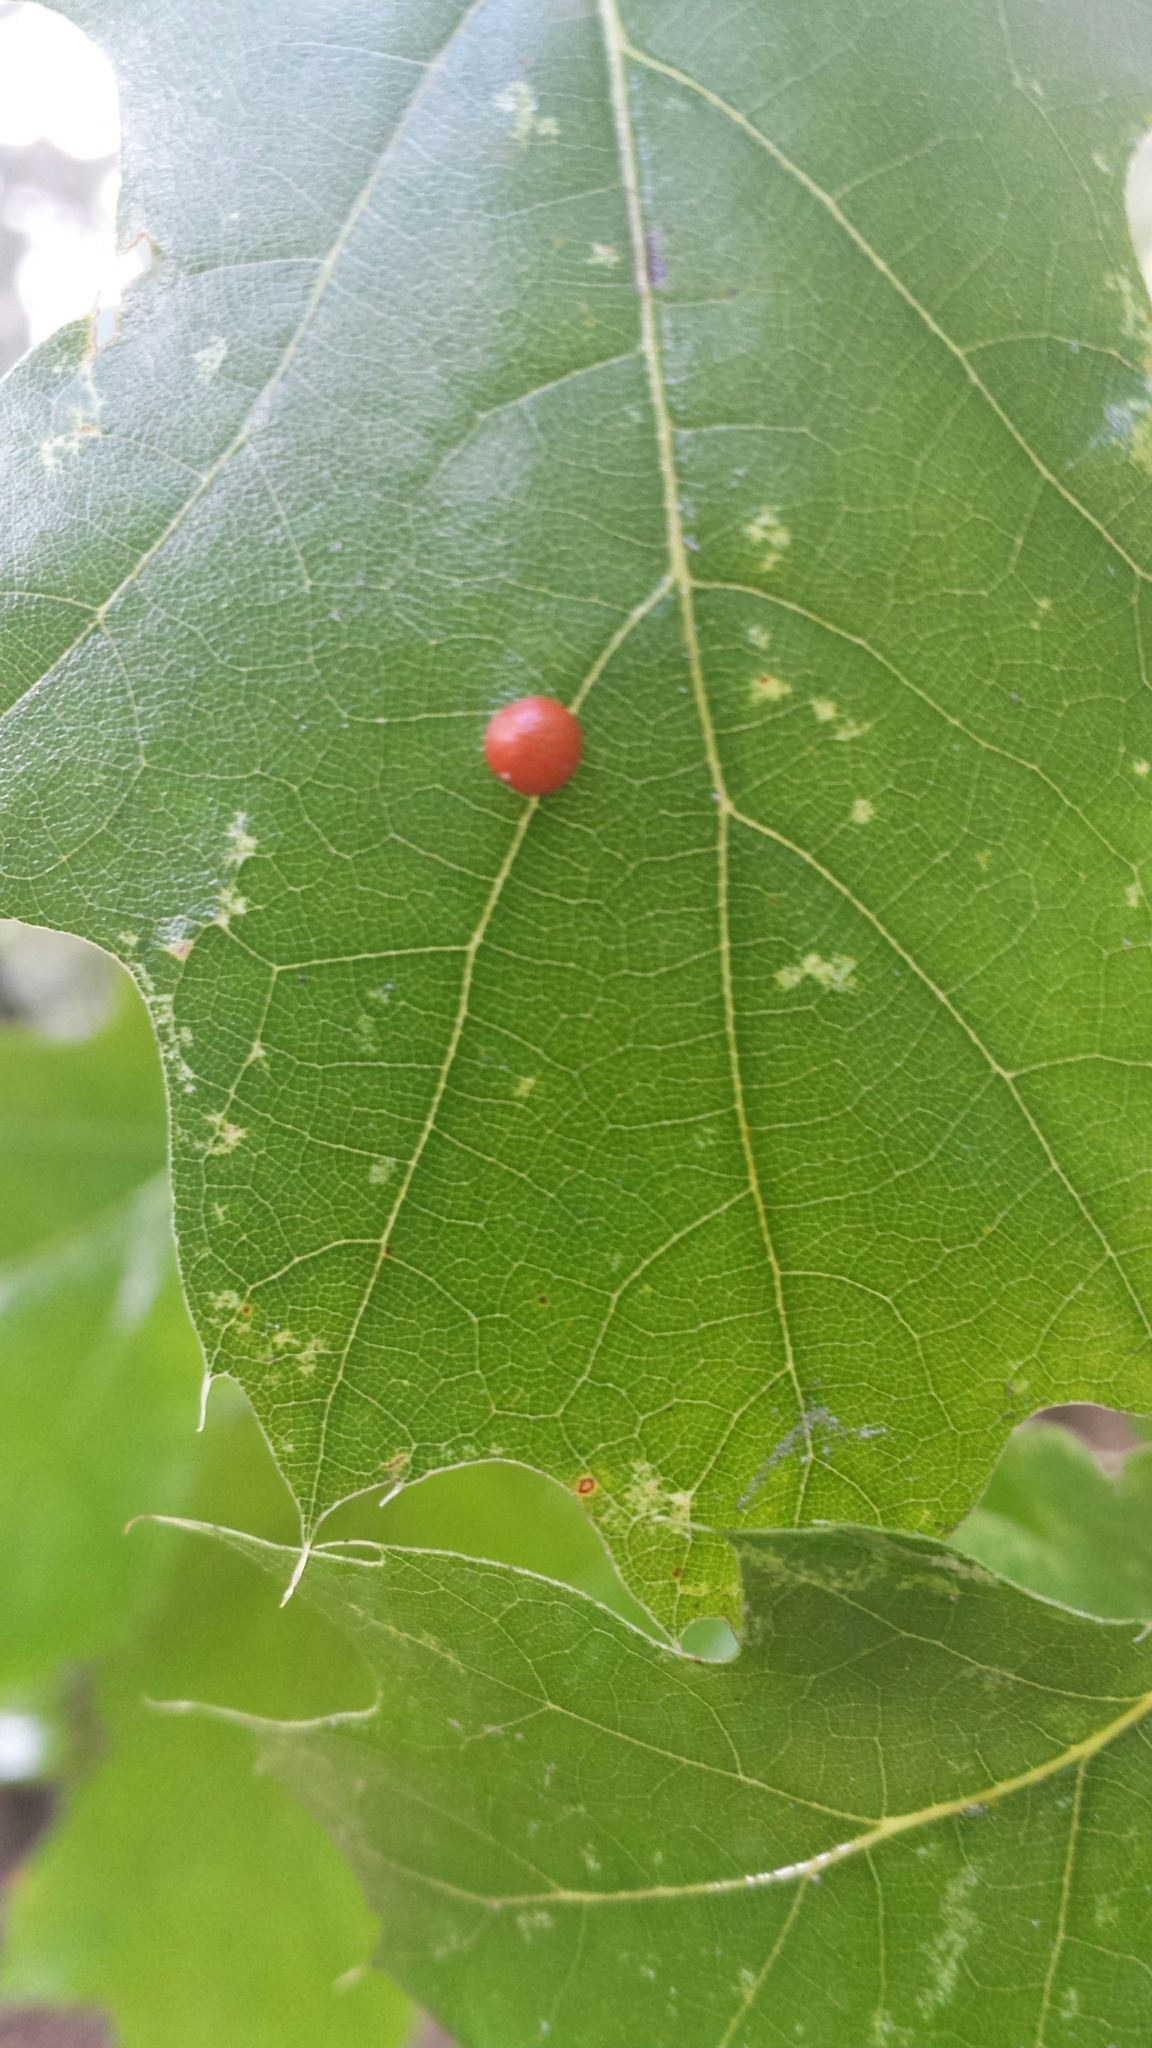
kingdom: Animalia
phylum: Arthropoda
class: Arachnida
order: Trombidiformes
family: Eriophyidae
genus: Vasates
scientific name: Vasates quadripedes
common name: Maple bladder gall mite
